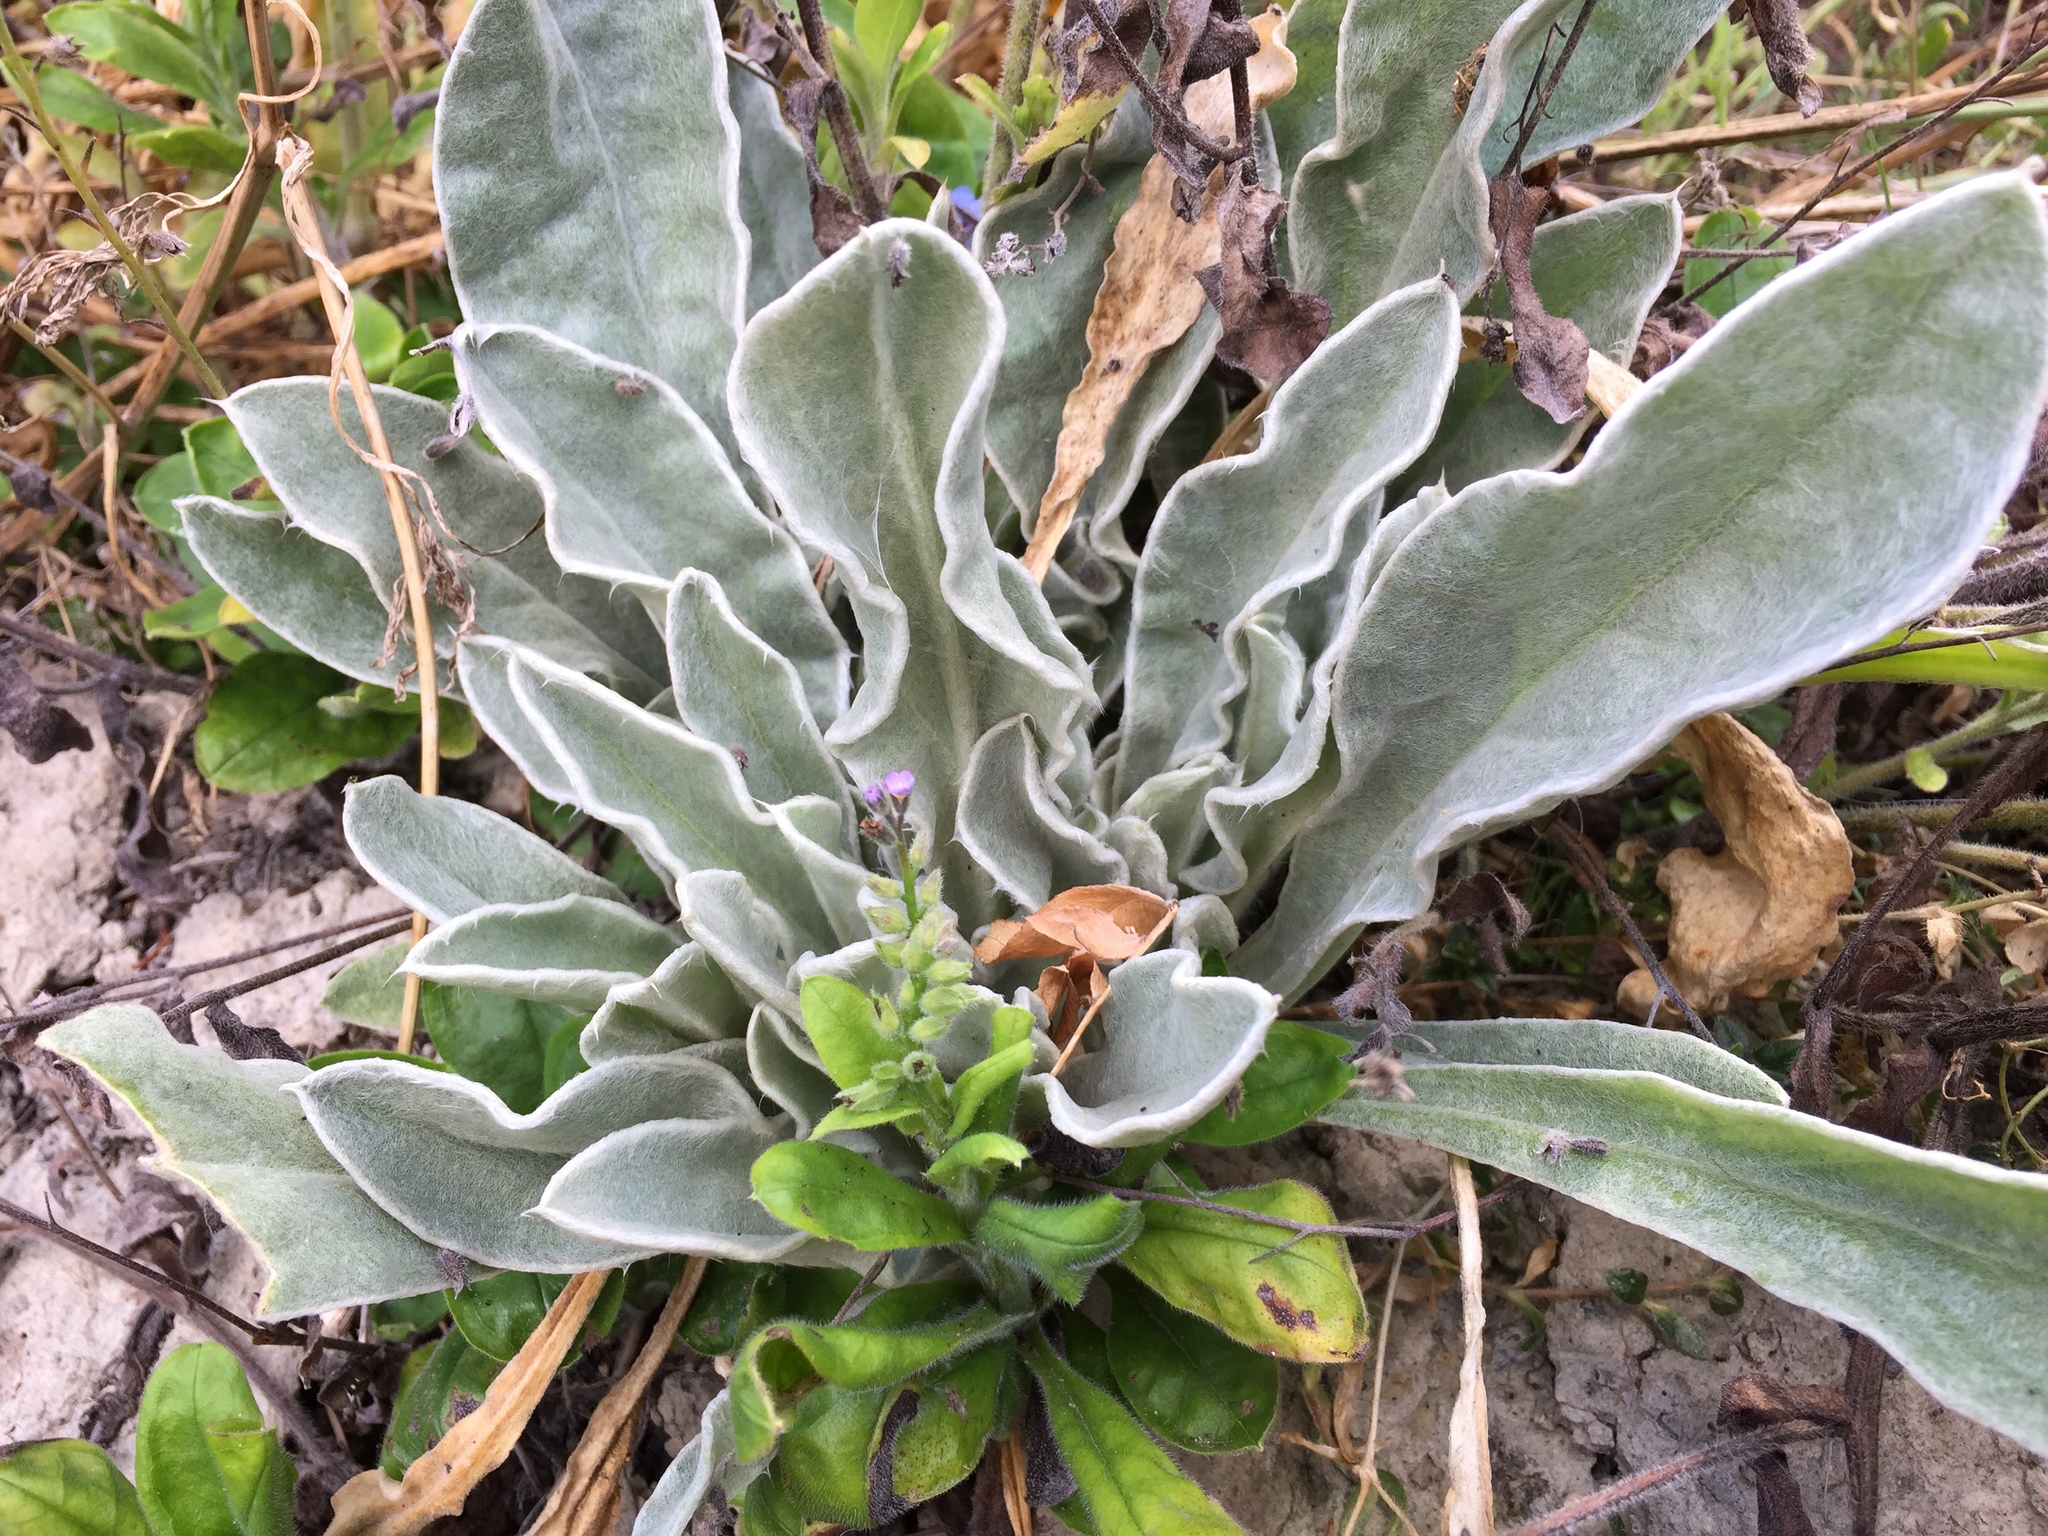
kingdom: Plantae
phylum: Tracheophyta
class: Magnoliopsida
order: Caryophyllales
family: Caryophyllaceae
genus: Silene
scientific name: Silene coronaria
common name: Rose campion
